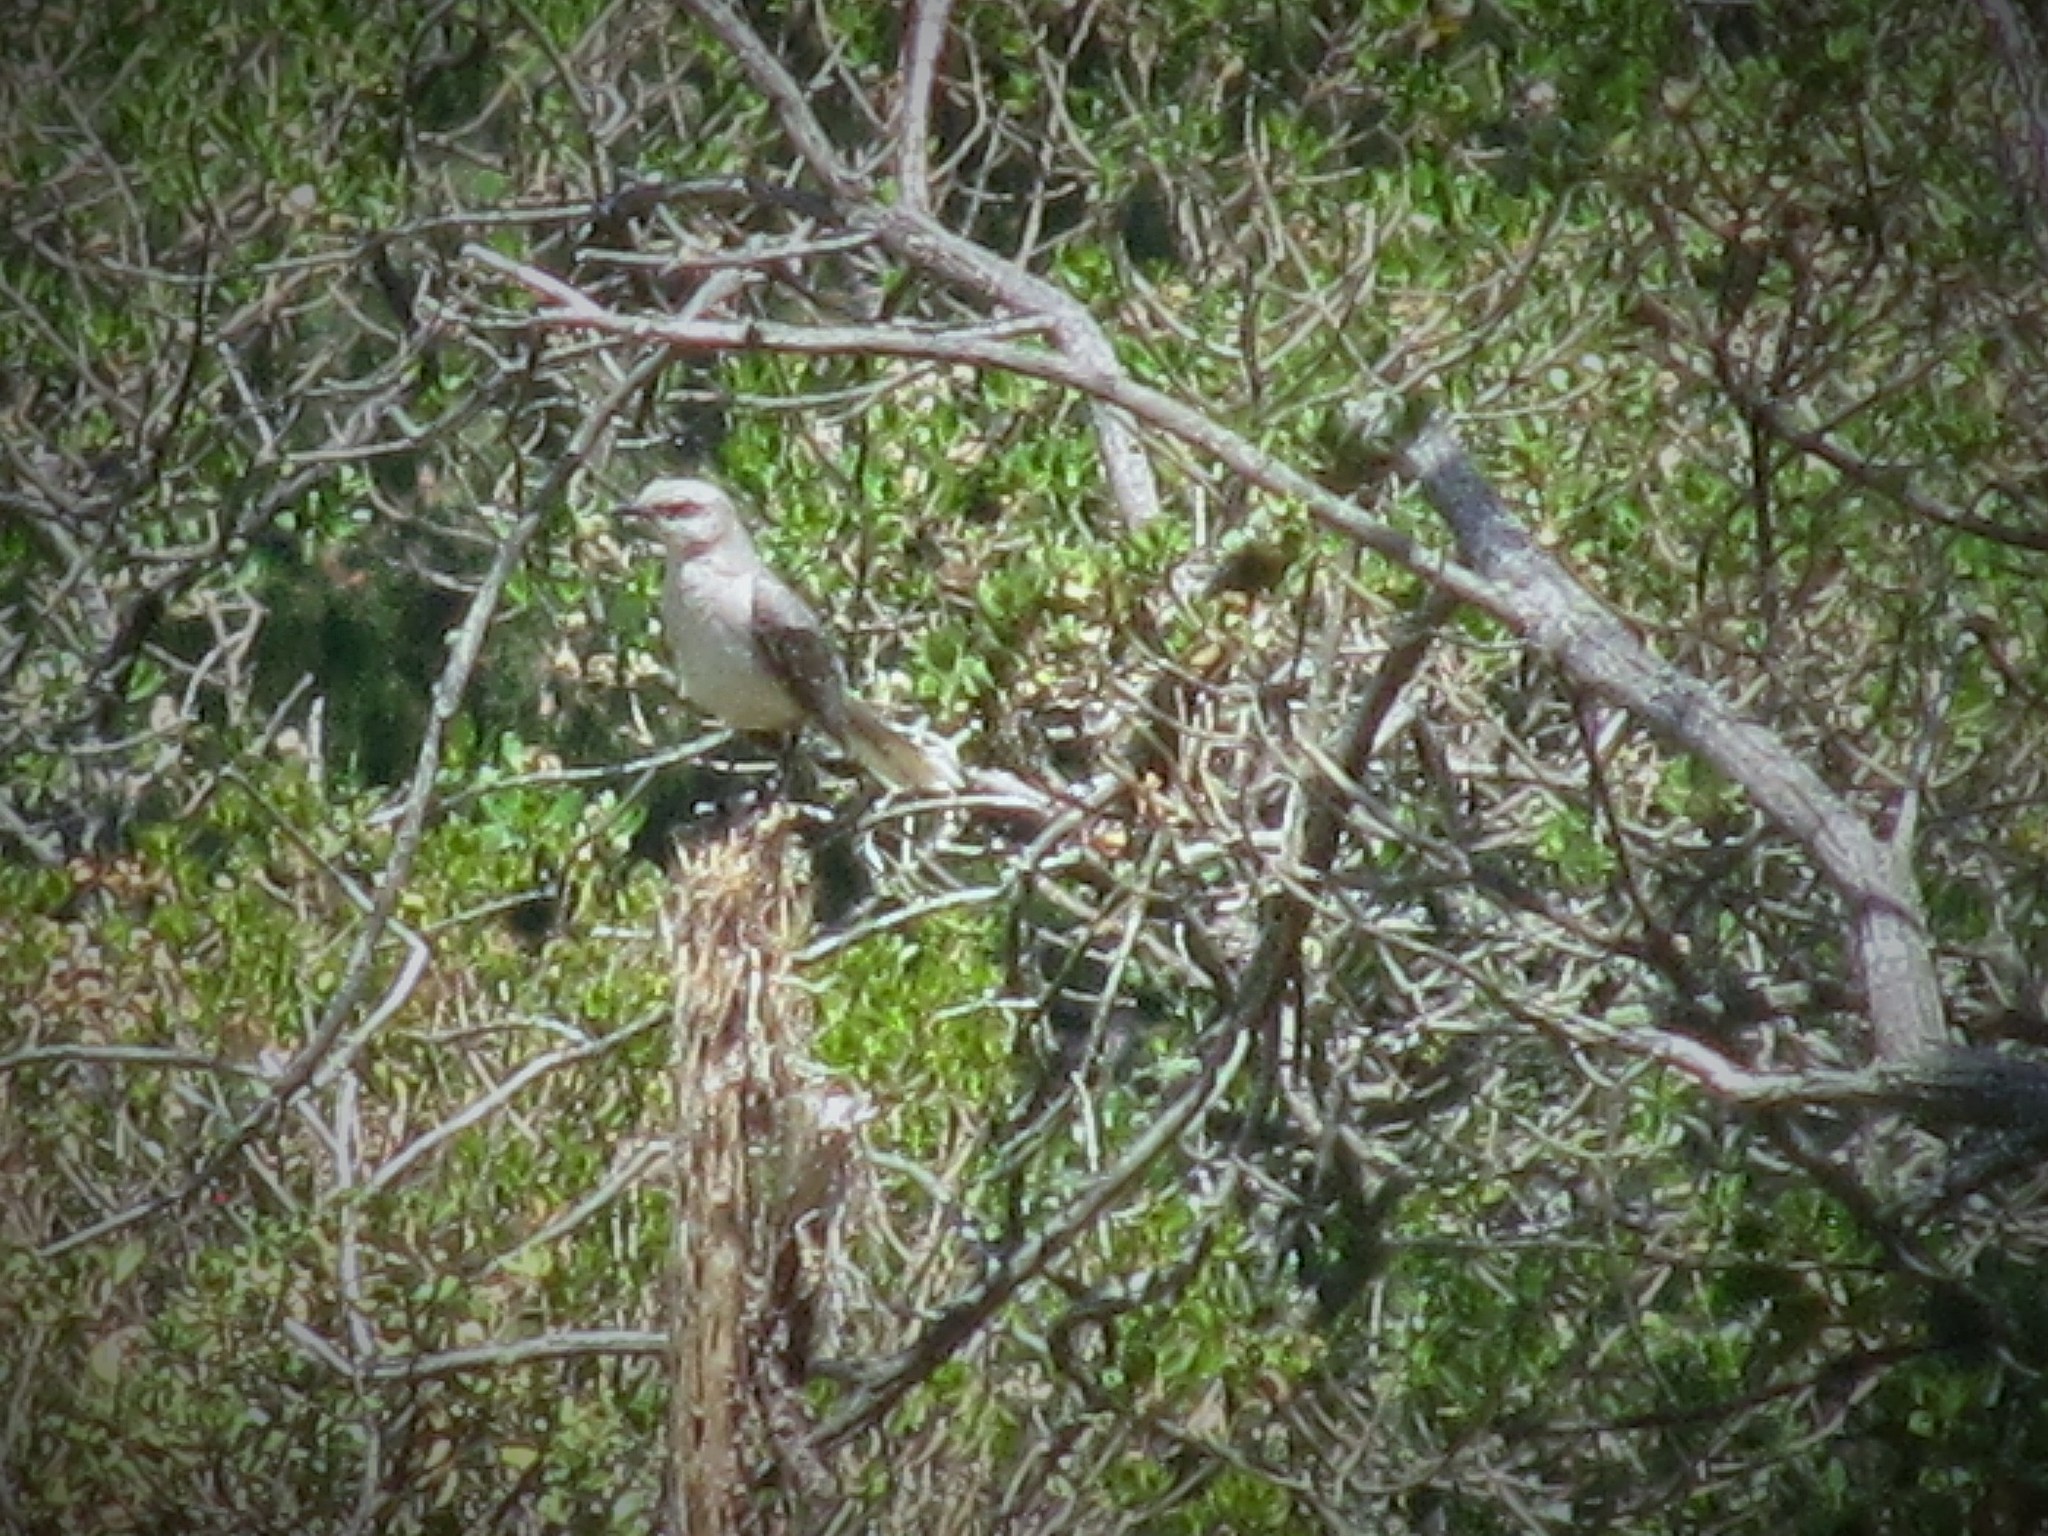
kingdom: Animalia
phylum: Chordata
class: Aves
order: Passeriformes
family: Mimidae
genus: Mimus
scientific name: Mimus gilvus
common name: Tropical mockingbird
